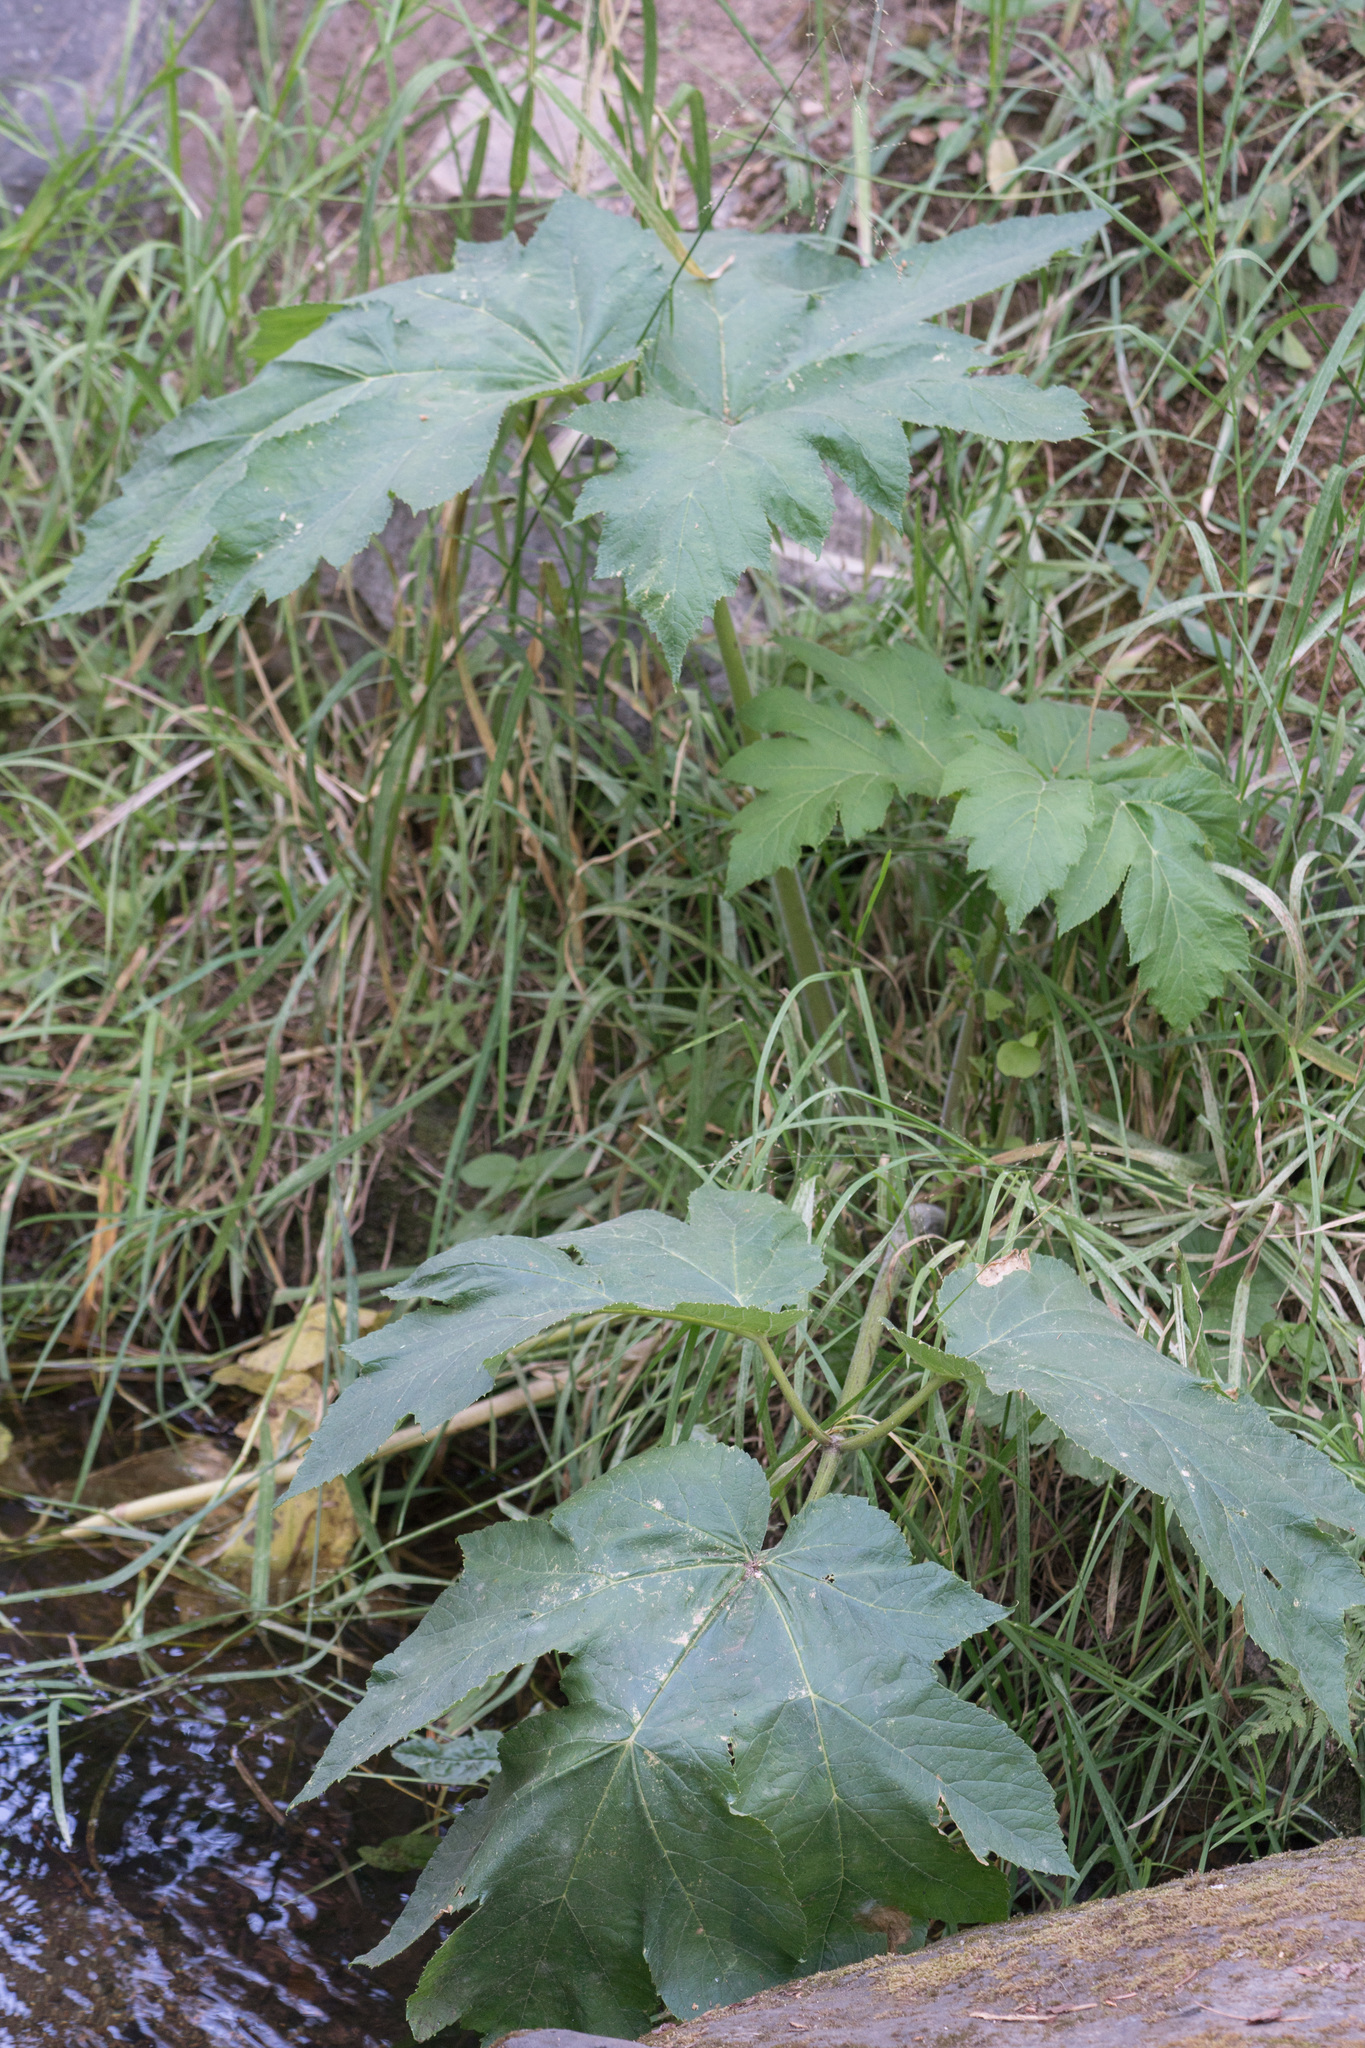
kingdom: Plantae
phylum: Tracheophyta
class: Magnoliopsida
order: Apiales
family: Apiaceae
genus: Heracleum
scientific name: Heracleum maximum
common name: American cow parsnip
